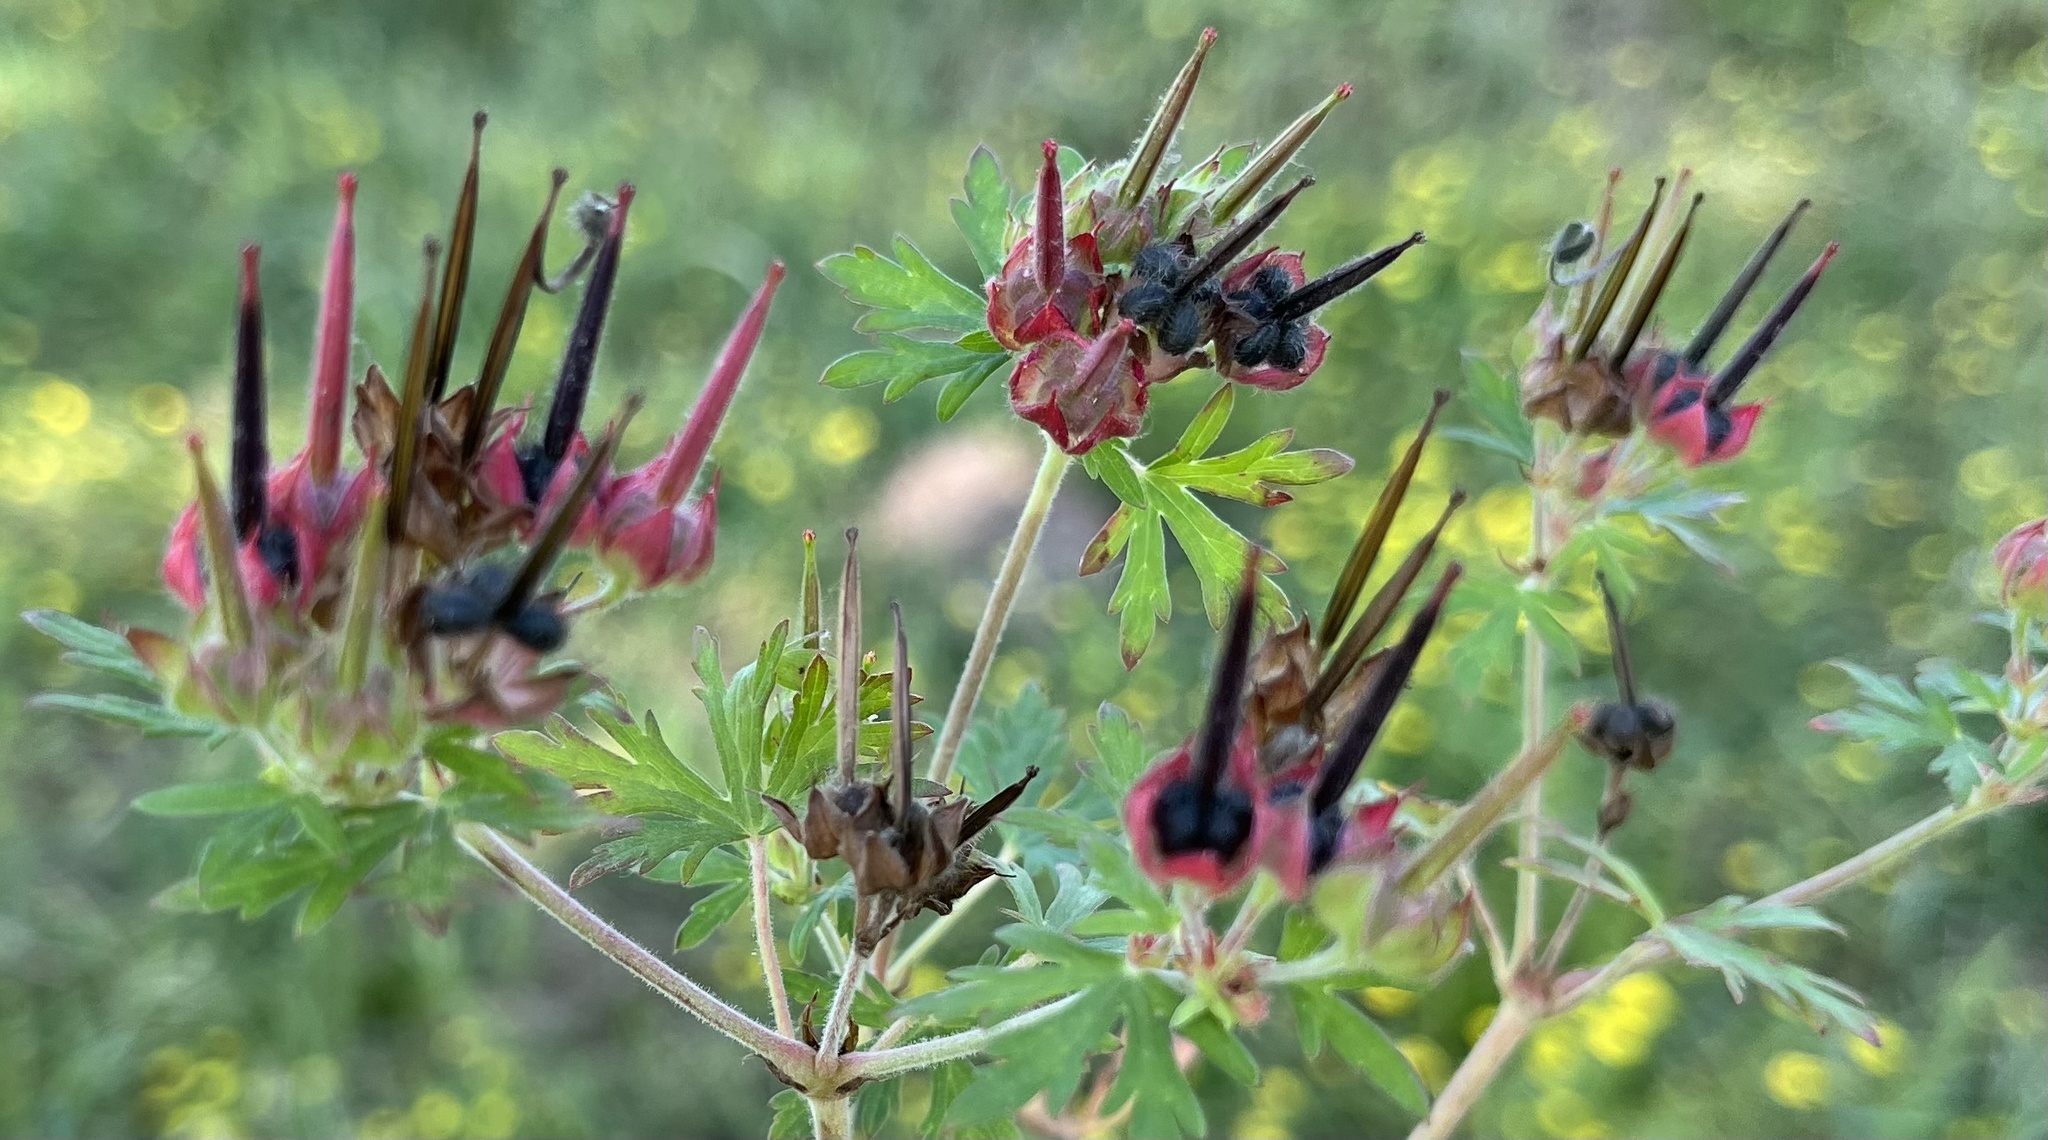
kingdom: Plantae
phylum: Tracheophyta
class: Magnoliopsida
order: Geraniales
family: Geraniaceae
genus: Geranium
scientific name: Geranium carolinianum
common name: Carolina crane's-bill
